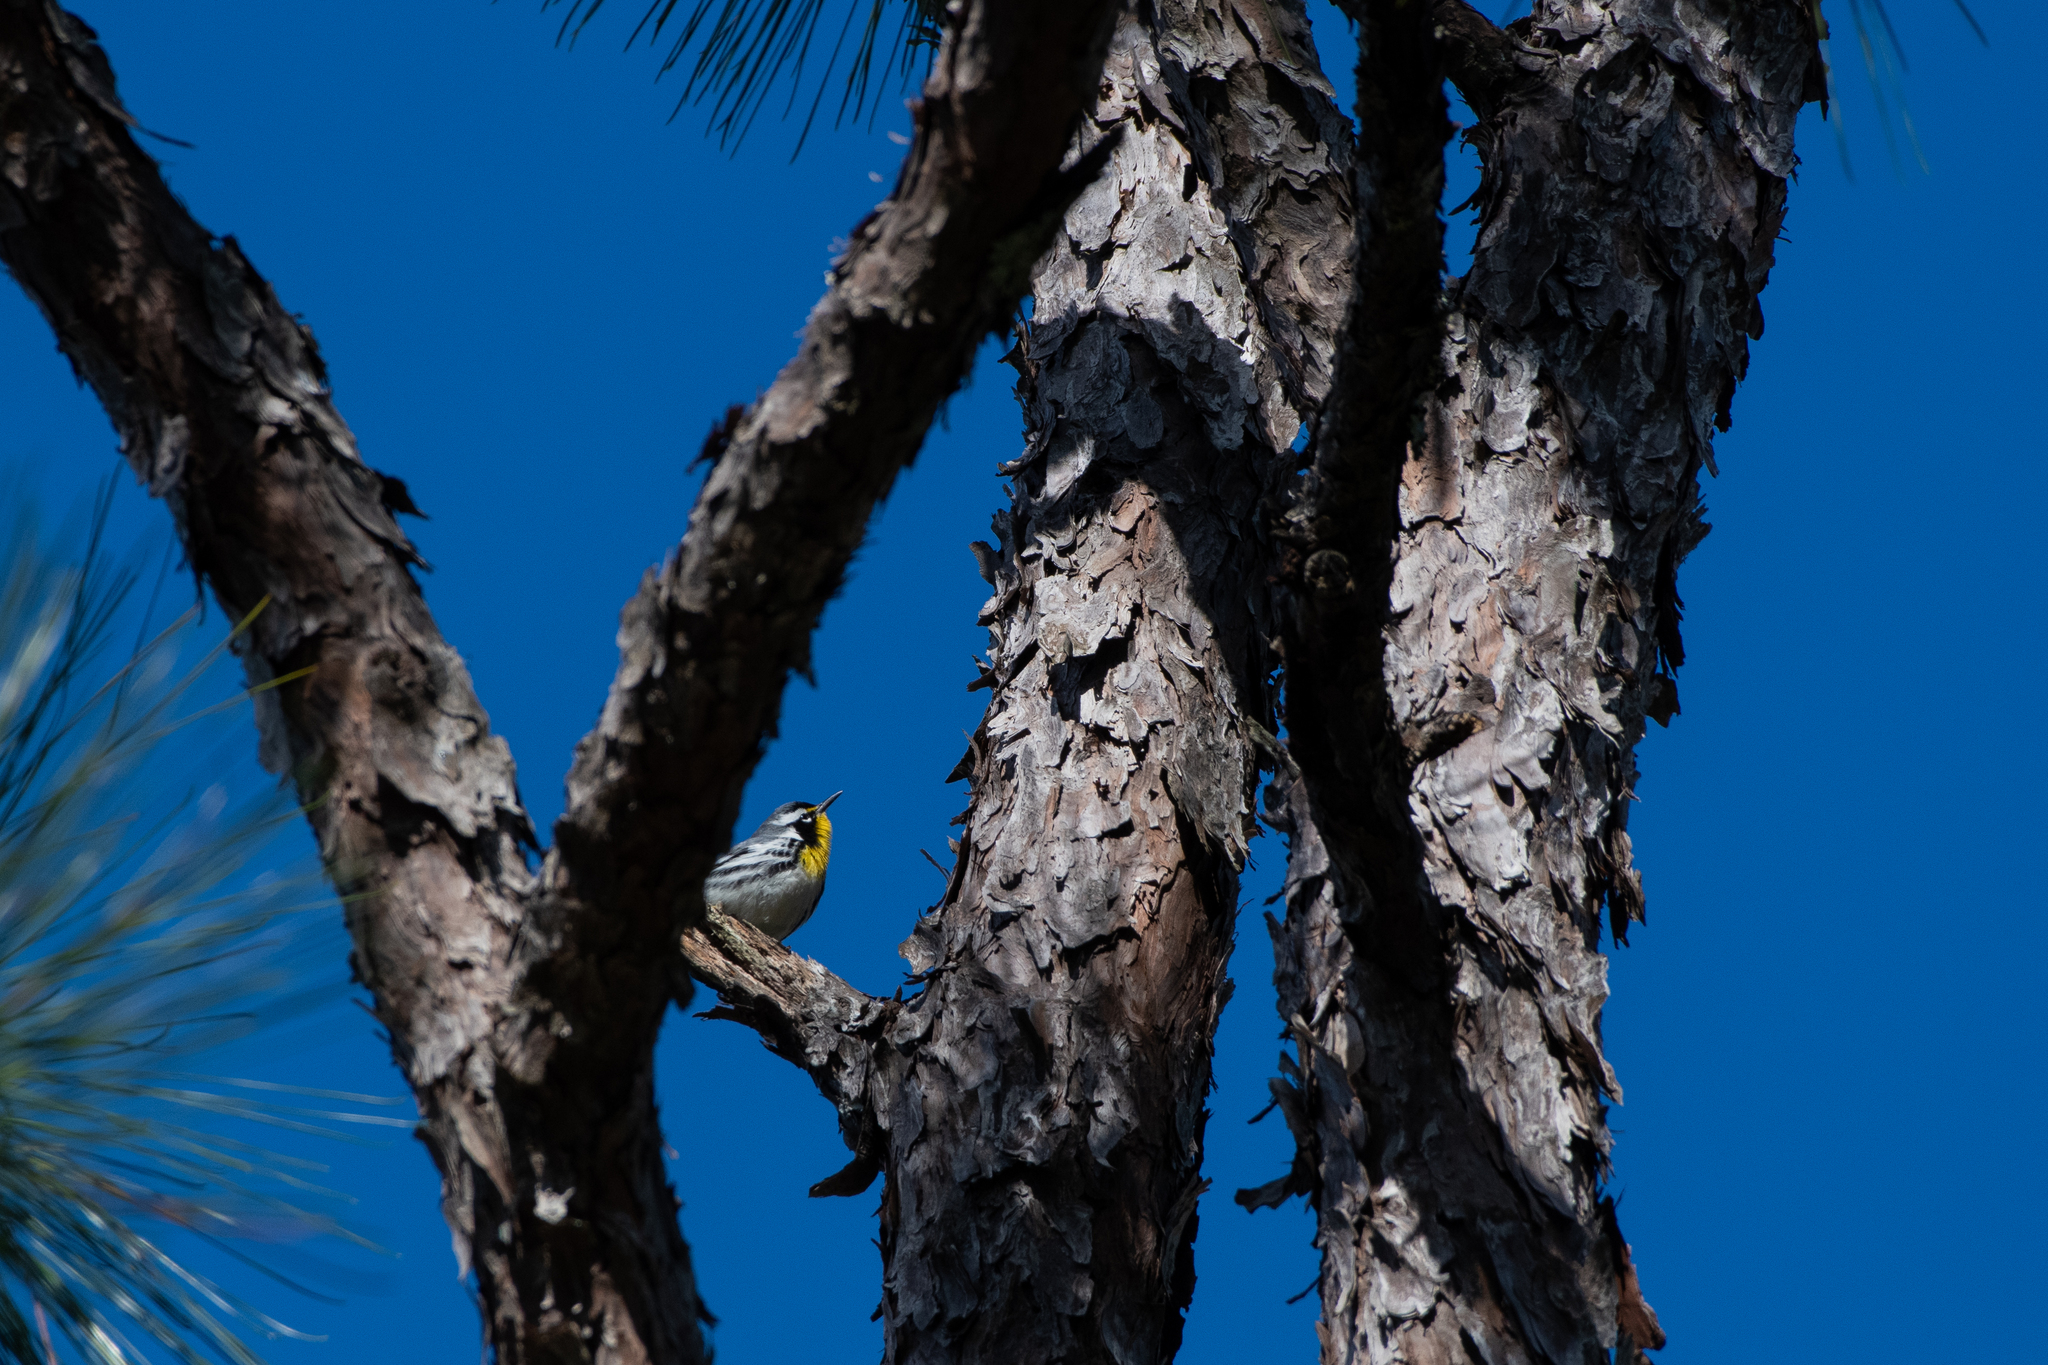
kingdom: Animalia
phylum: Chordata
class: Aves
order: Passeriformes
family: Parulidae
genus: Setophaga
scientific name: Setophaga dominica
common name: Yellow-throated warbler
